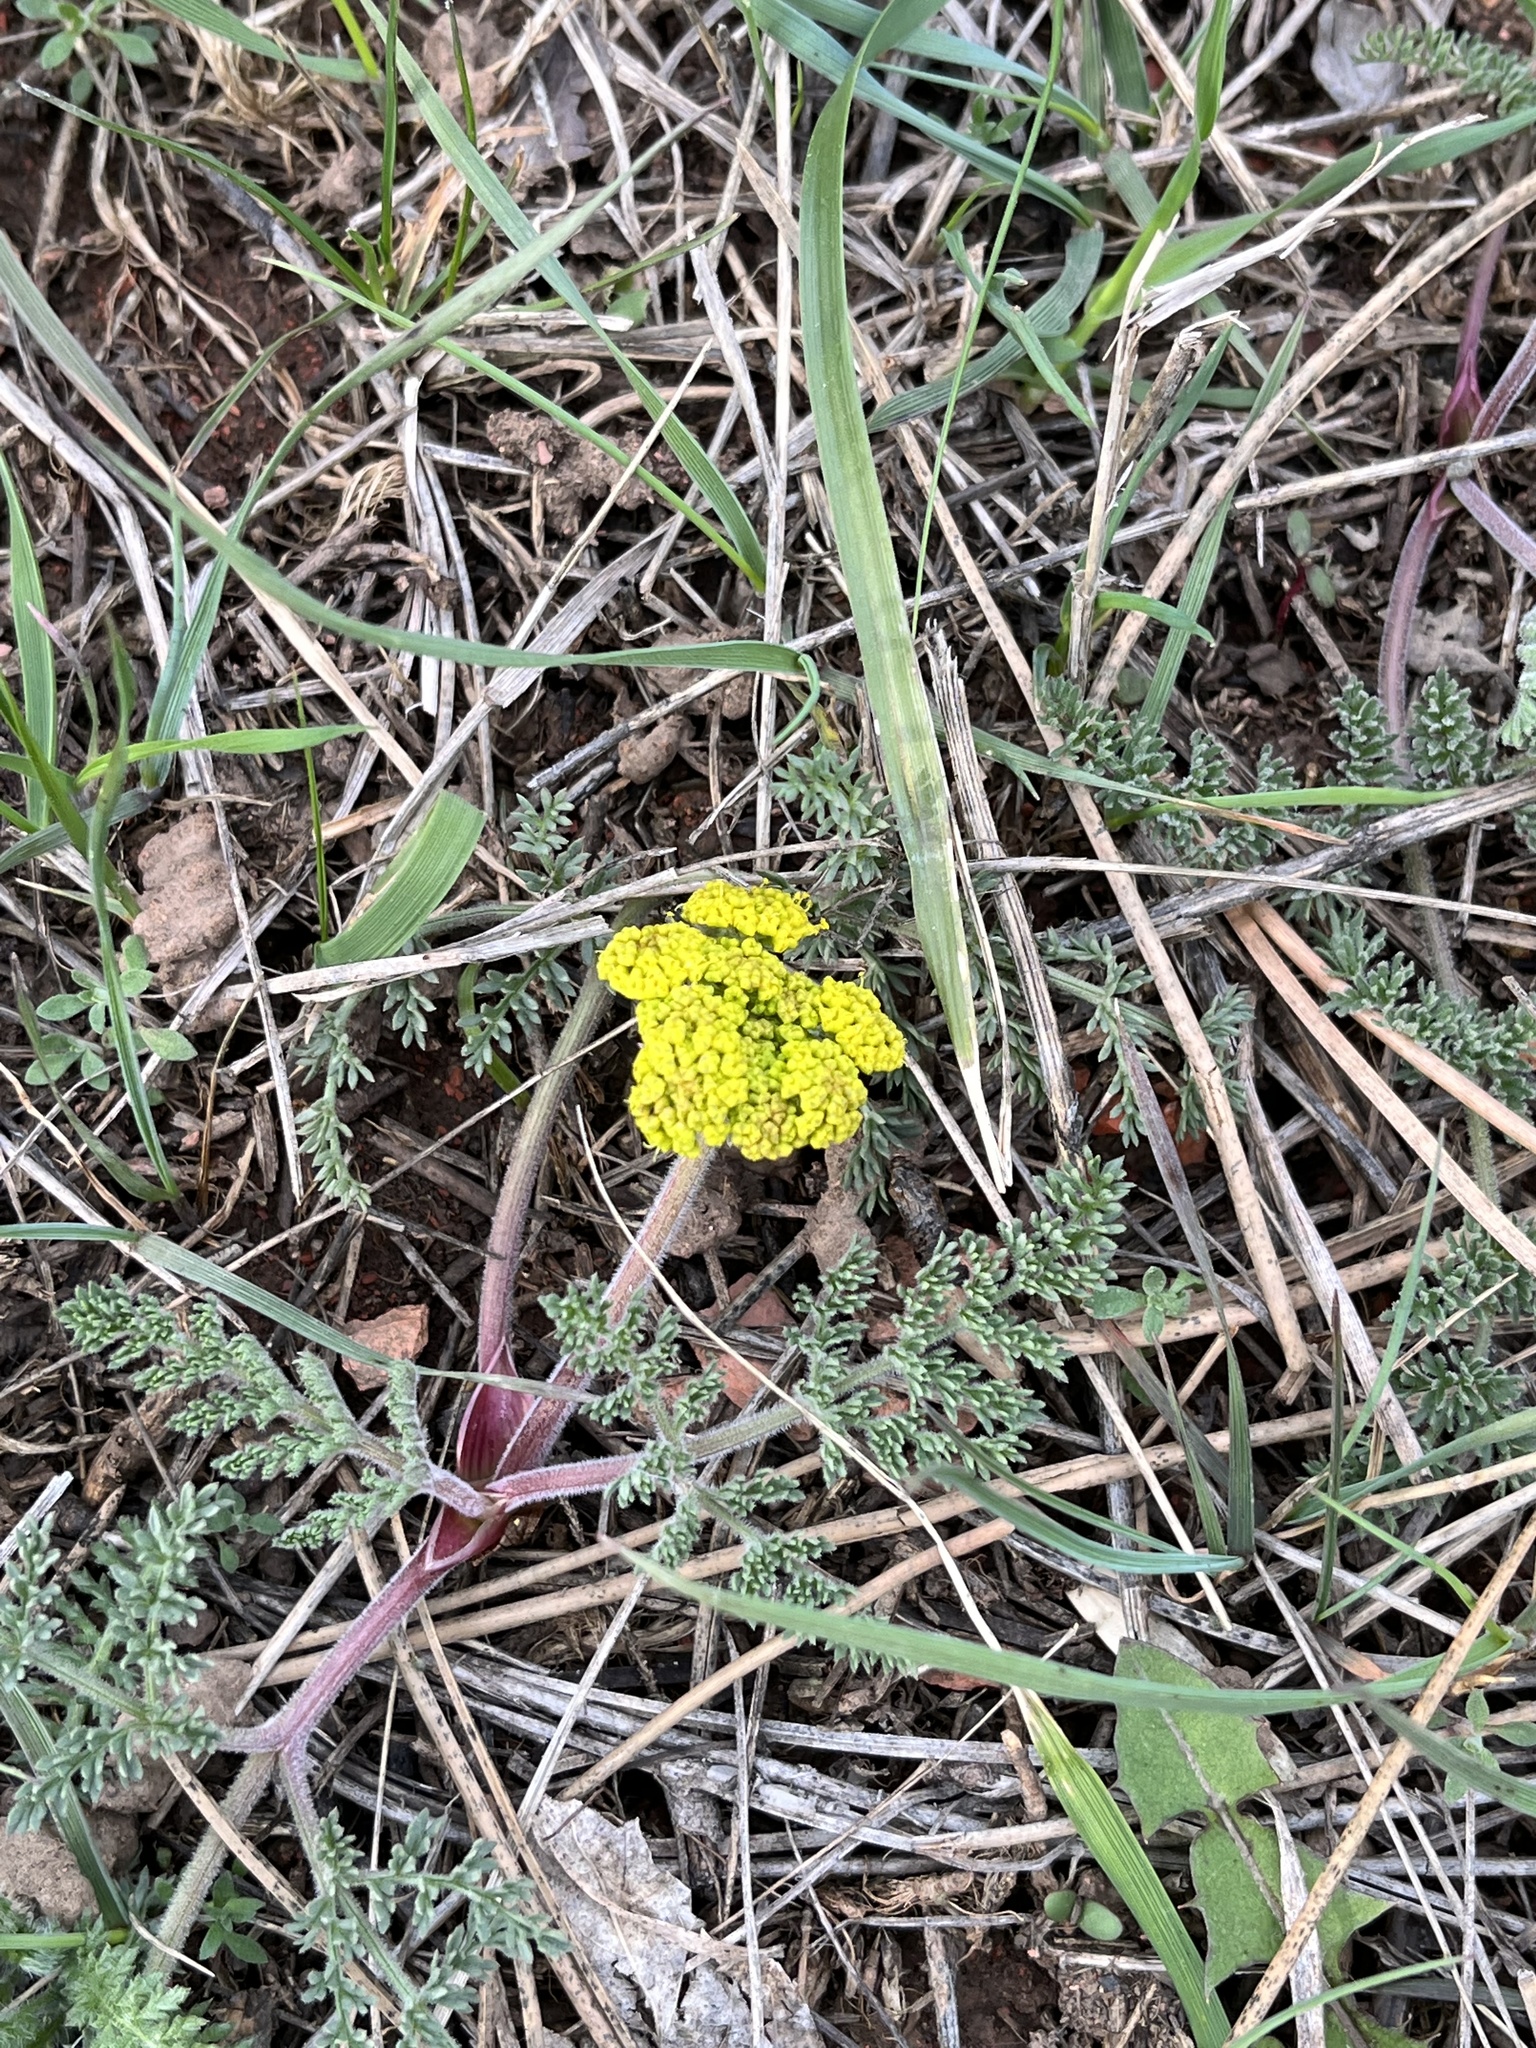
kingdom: Plantae
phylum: Tracheophyta
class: Magnoliopsida
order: Apiales
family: Apiaceae
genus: Lomatium
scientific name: Lomatium foeniculaceum
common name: Desert-parsley
